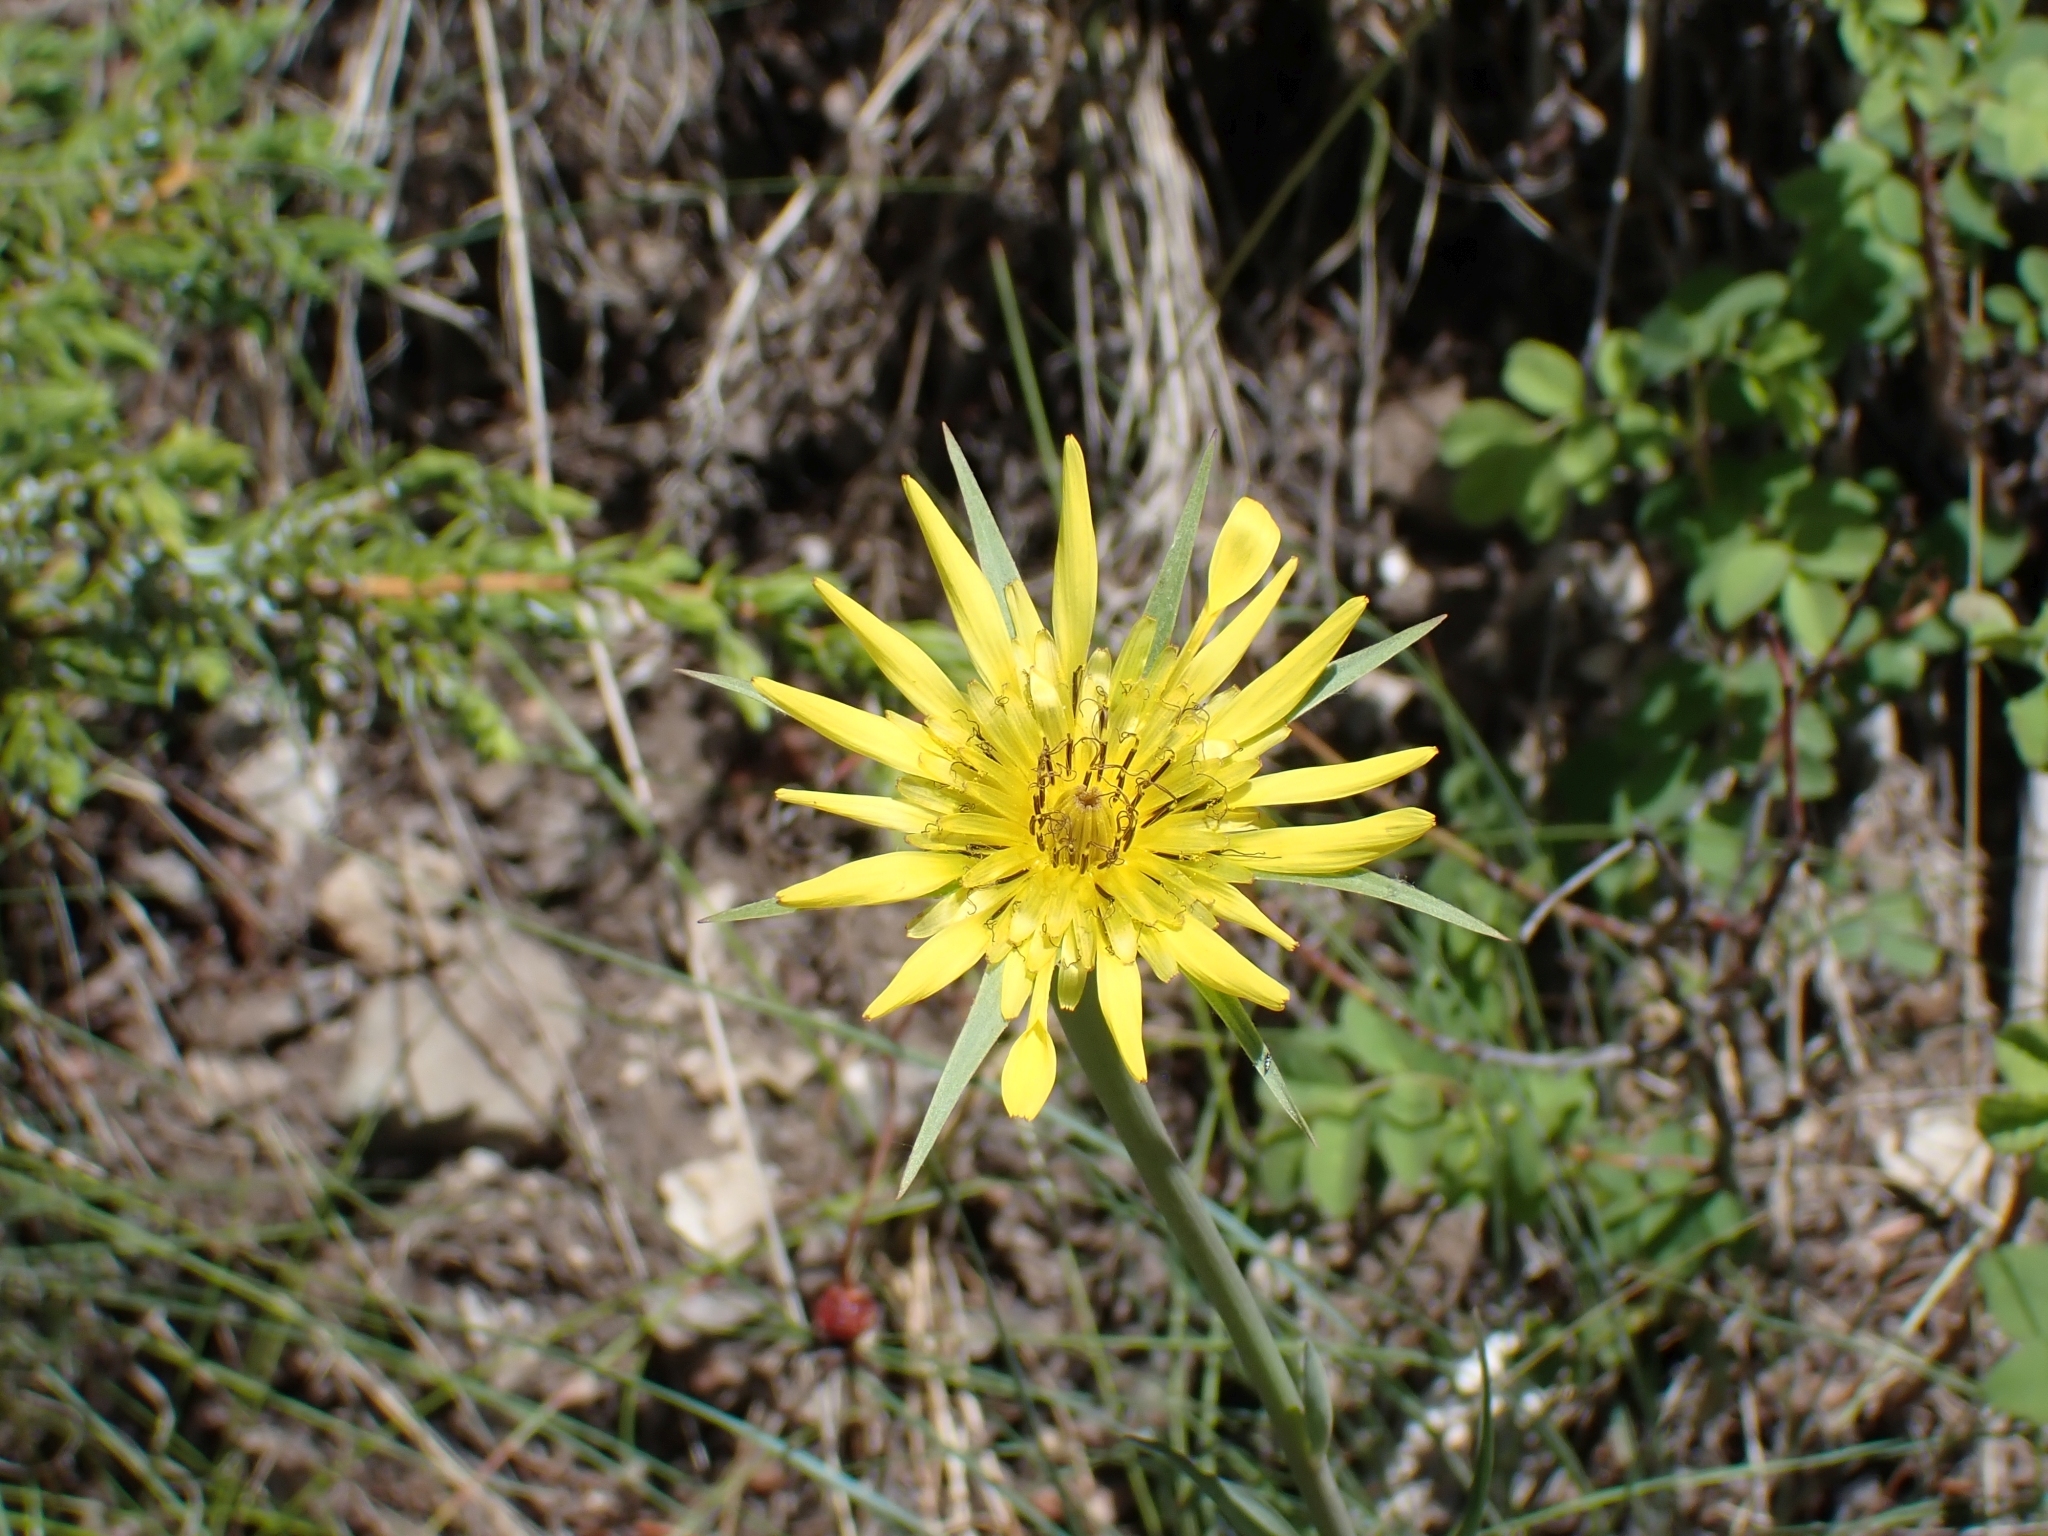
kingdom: Plantae
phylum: Tracheophyta
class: Magnoliopsida
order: Asterales
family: Asteraceae
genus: Tragopogon
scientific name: Tragopogon dubius
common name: Yellow salsify
